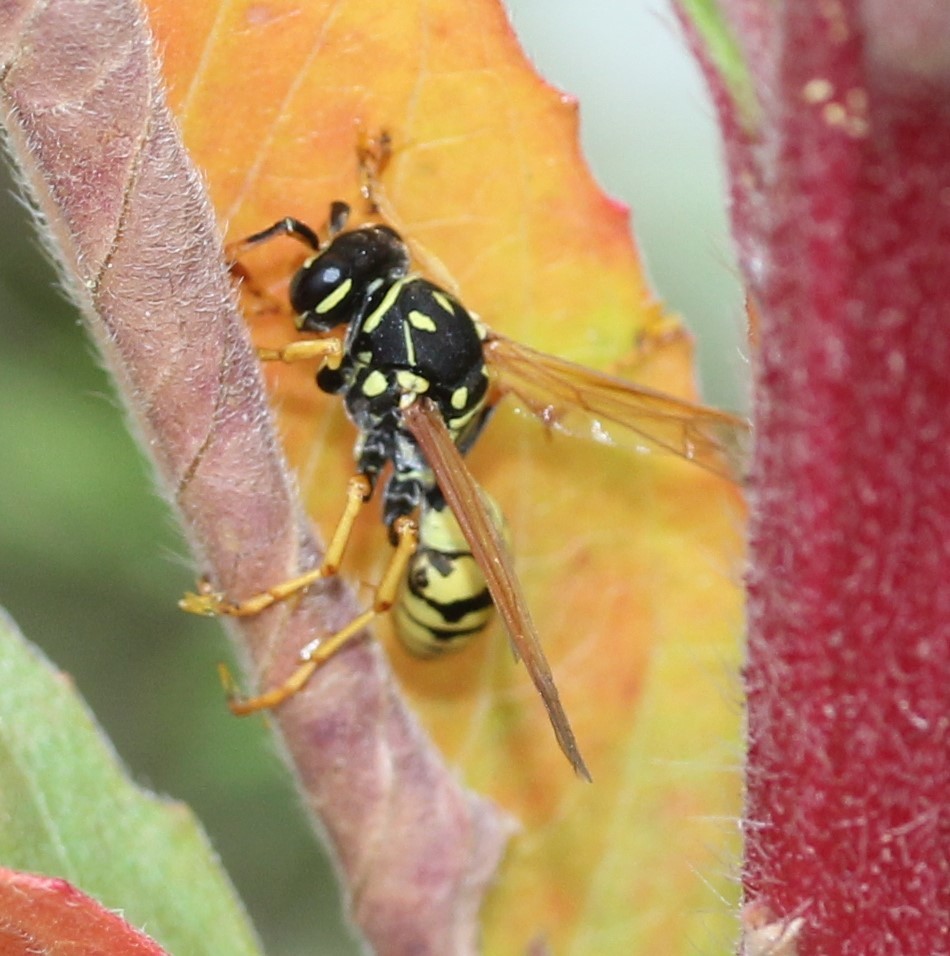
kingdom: Animalia
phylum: Arthropoda
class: Insecta
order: Hymenoptera
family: Eumenidae
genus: Polistes
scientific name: Polistes dominula
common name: Paper wasp
